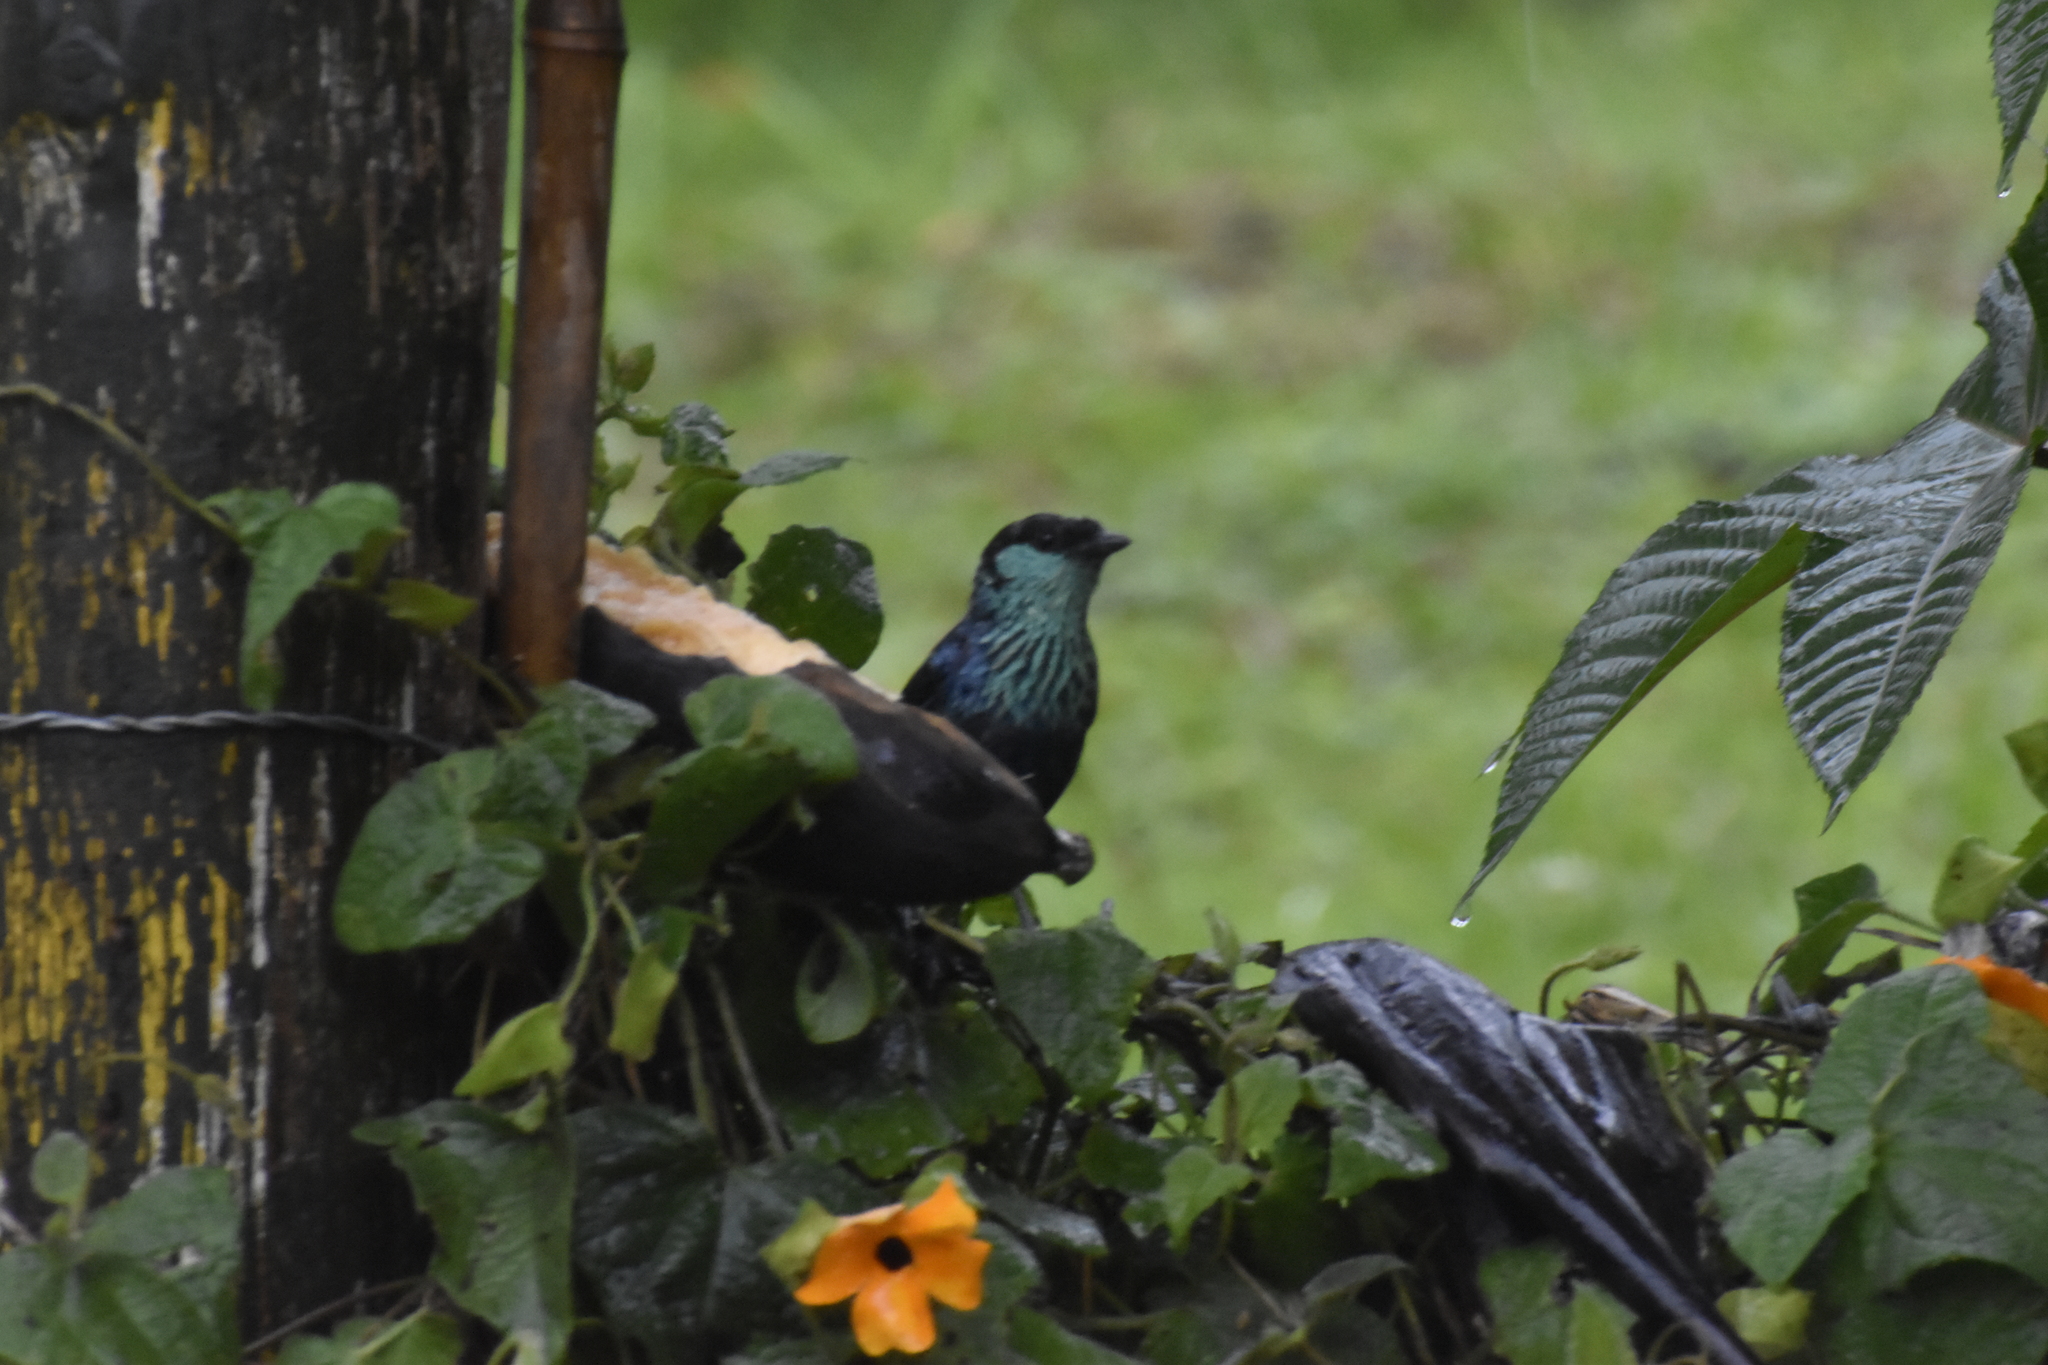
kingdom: Animalia
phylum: Chordata
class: Aves
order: Passeriformes
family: Thraupidae
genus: Stilpnia
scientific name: Stilpnia heinei
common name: Black-capped tanager
